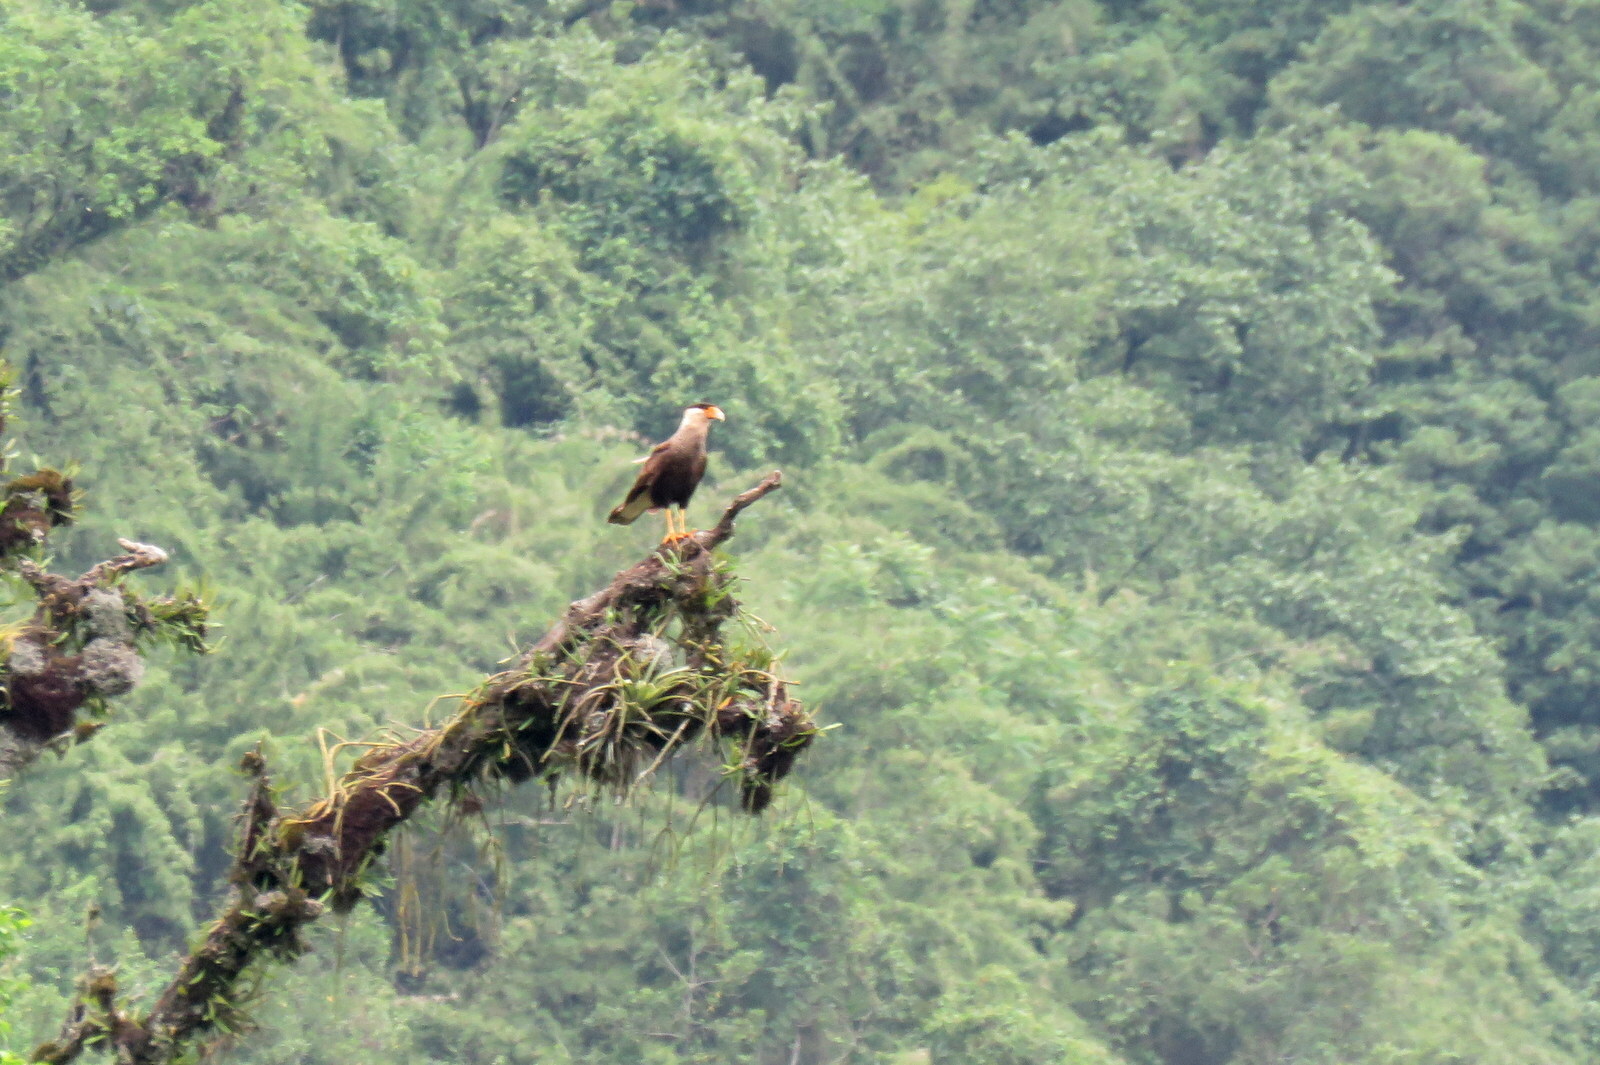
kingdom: Animalia
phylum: Chordata
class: Aves
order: Falconiformes
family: Falconidae
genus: Caracara
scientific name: Caracara plancus
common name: Southern caracara
